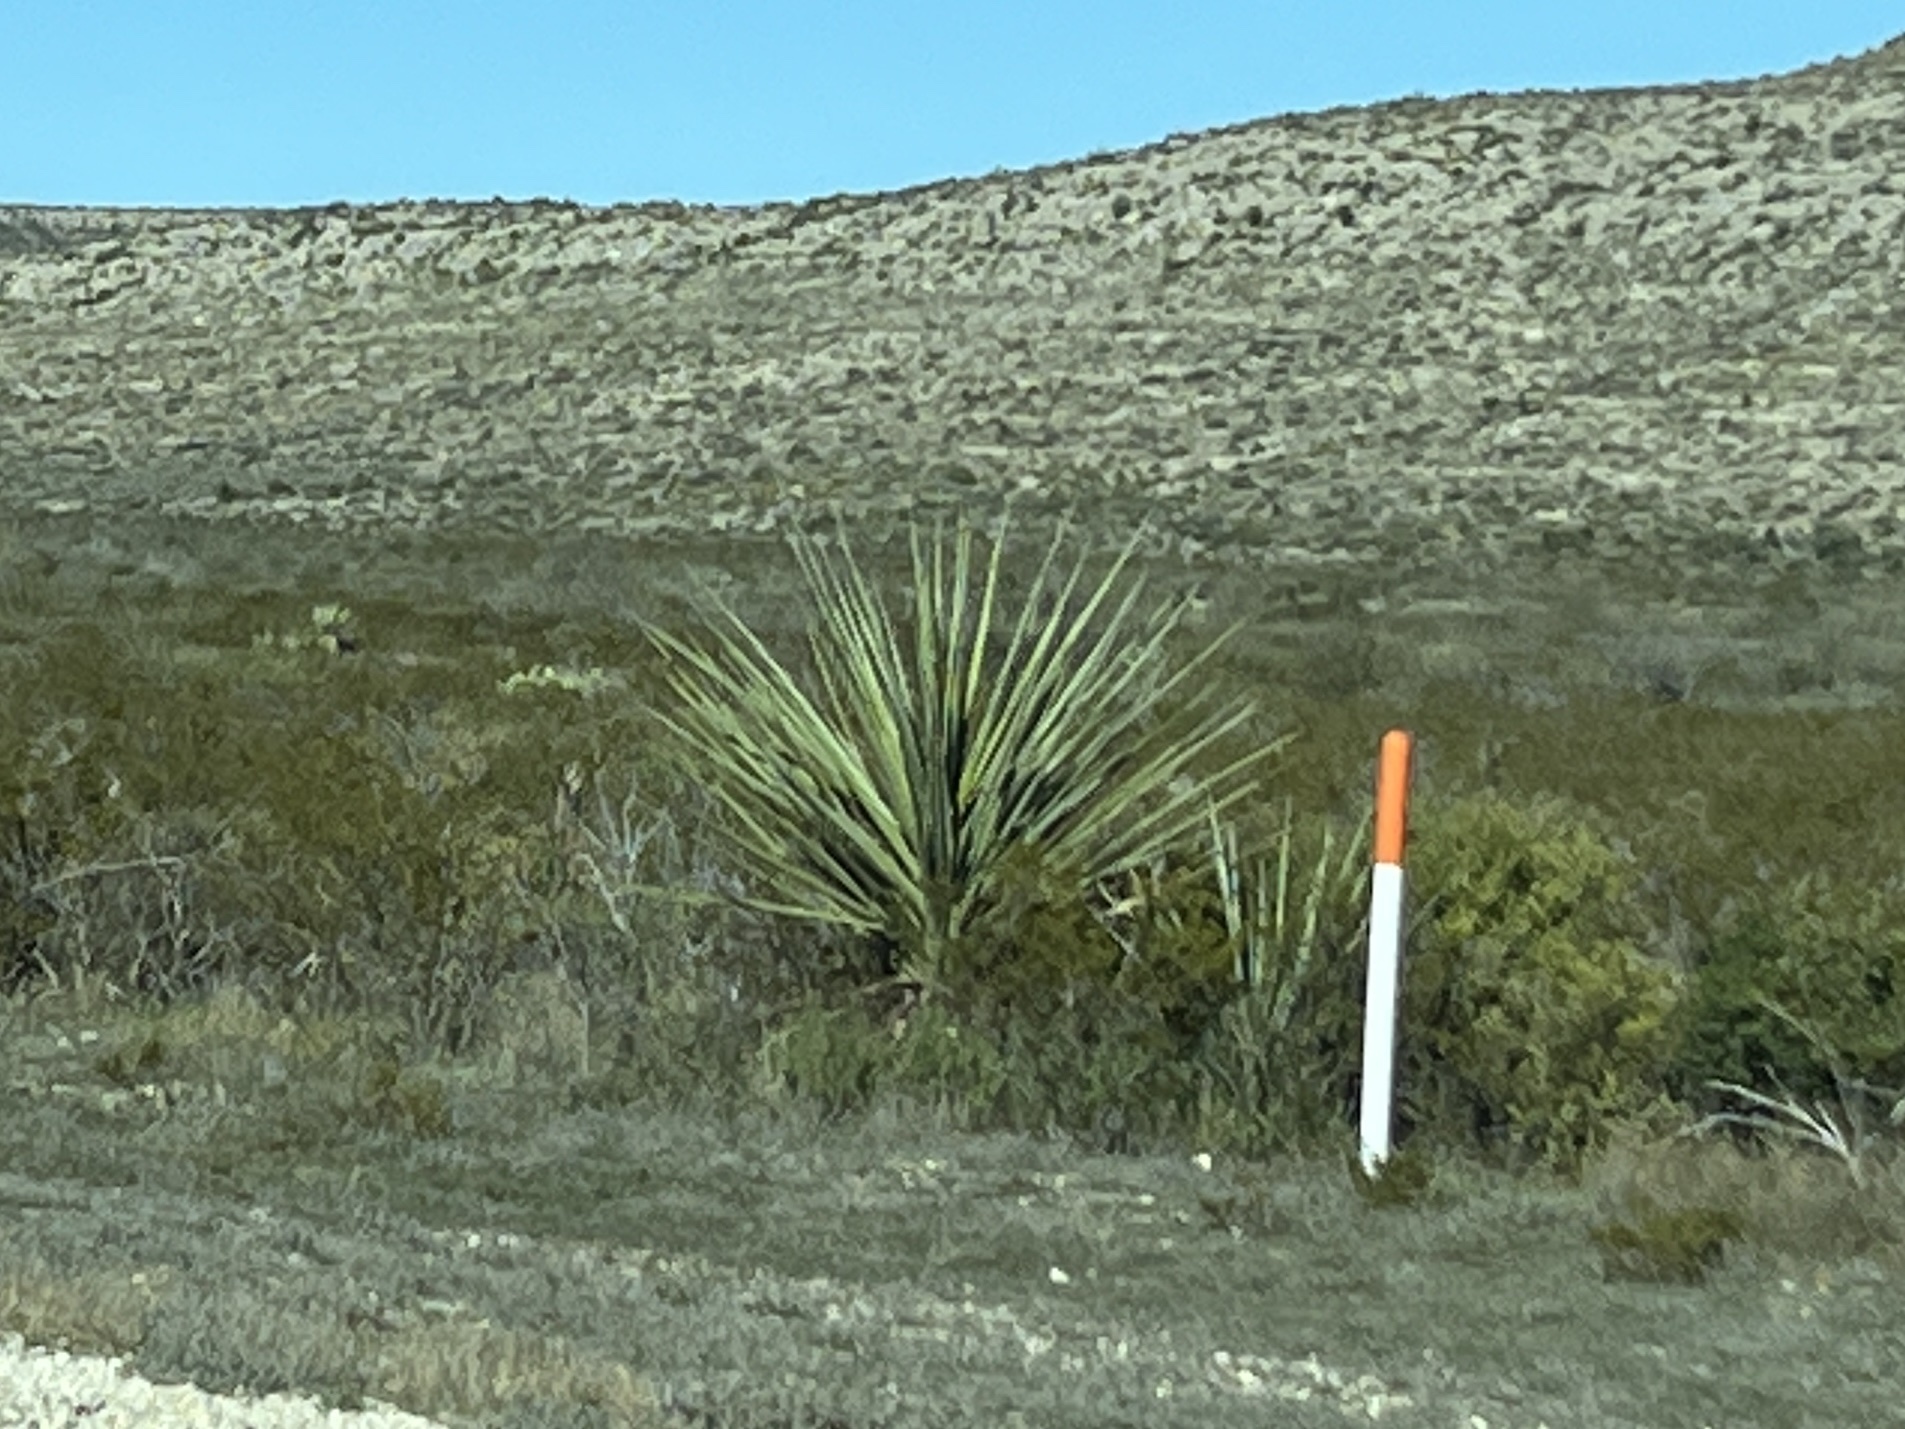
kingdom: Plantae
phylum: Tracheophyta
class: Liliopsida
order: Asparagales
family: Asparagaceae
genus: Yucca
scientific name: Yucca treculiana
